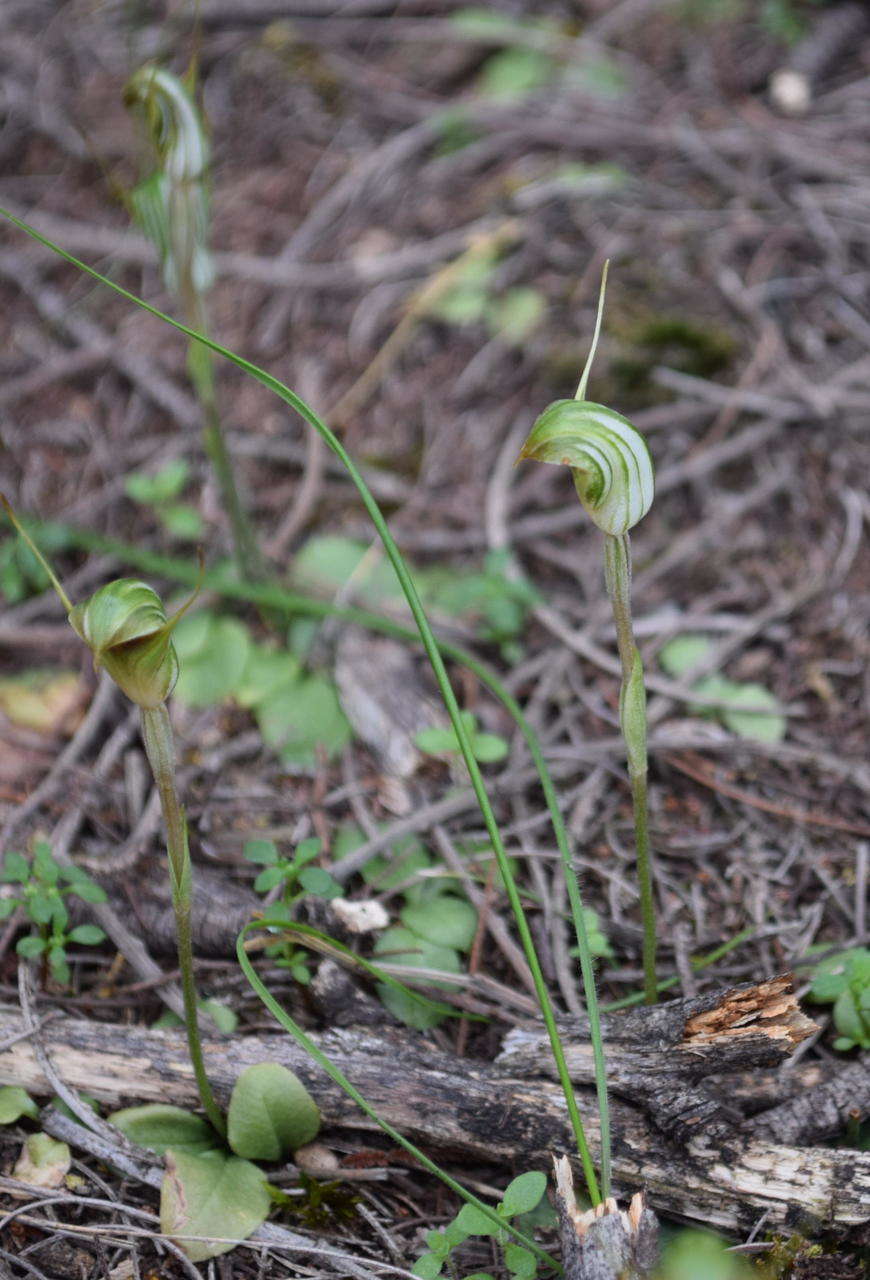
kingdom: Plantae
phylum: Tracheophyta
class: Liliopsida
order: Asparagales
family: Orchidaceae
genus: Pterostylis
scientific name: Pterostylis concinna
